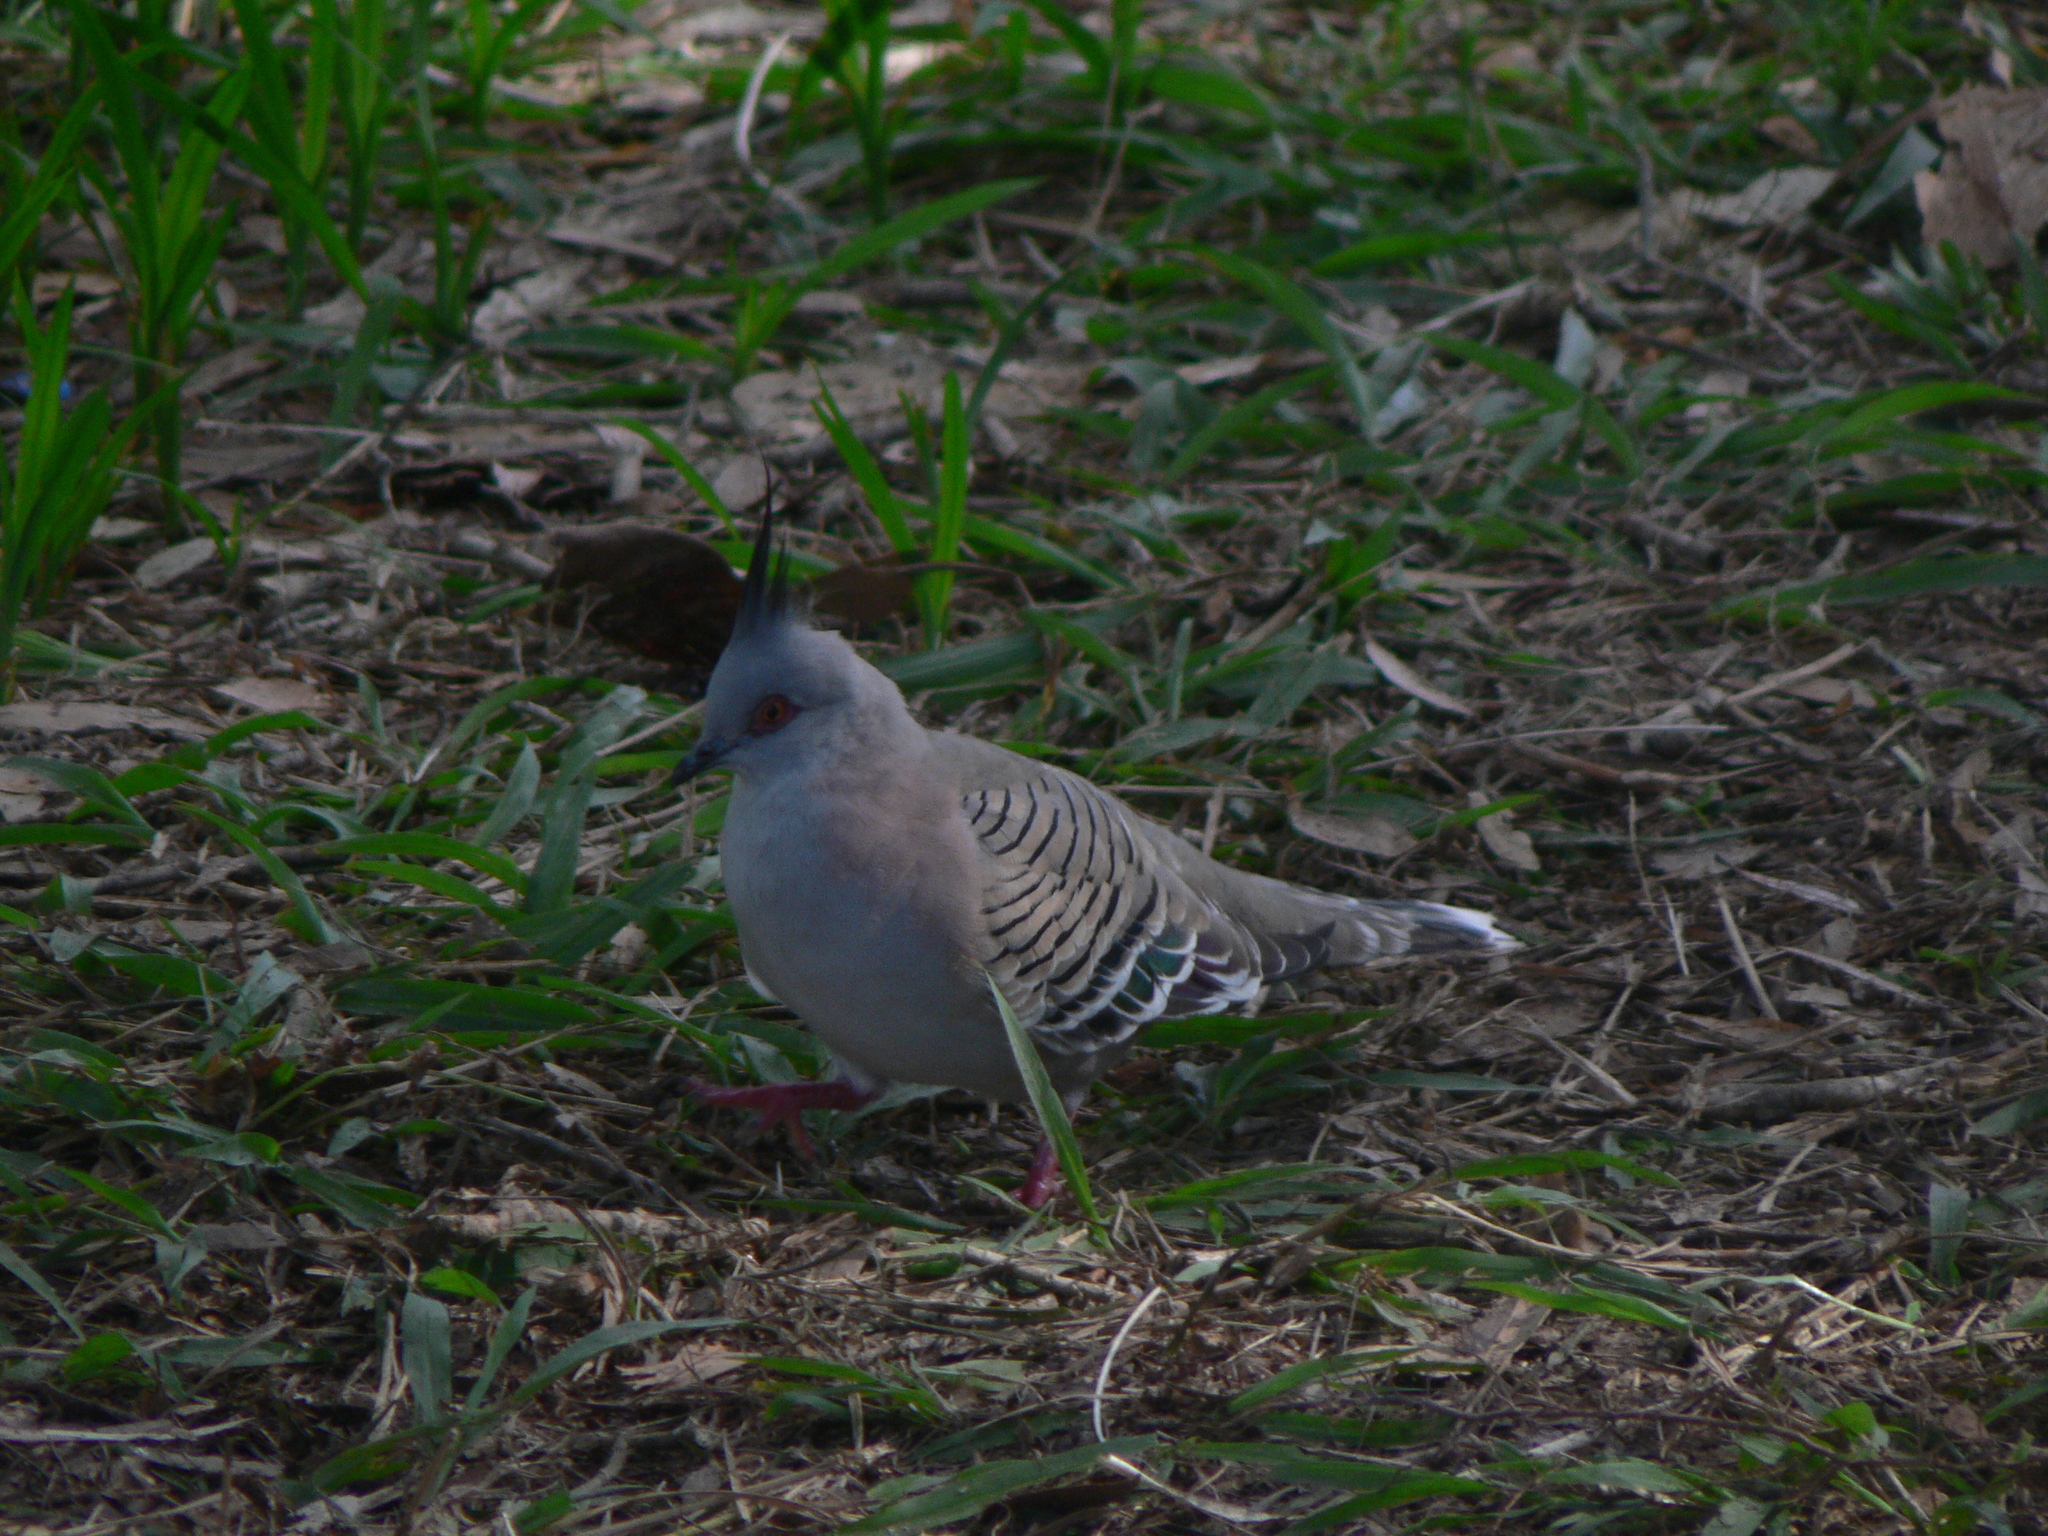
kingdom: Animalia
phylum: Chordata
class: Aves
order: Columbiformes
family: Columbidae
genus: Ocyphaps
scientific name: Ocyphaps lophotes
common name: Crested pigeon
